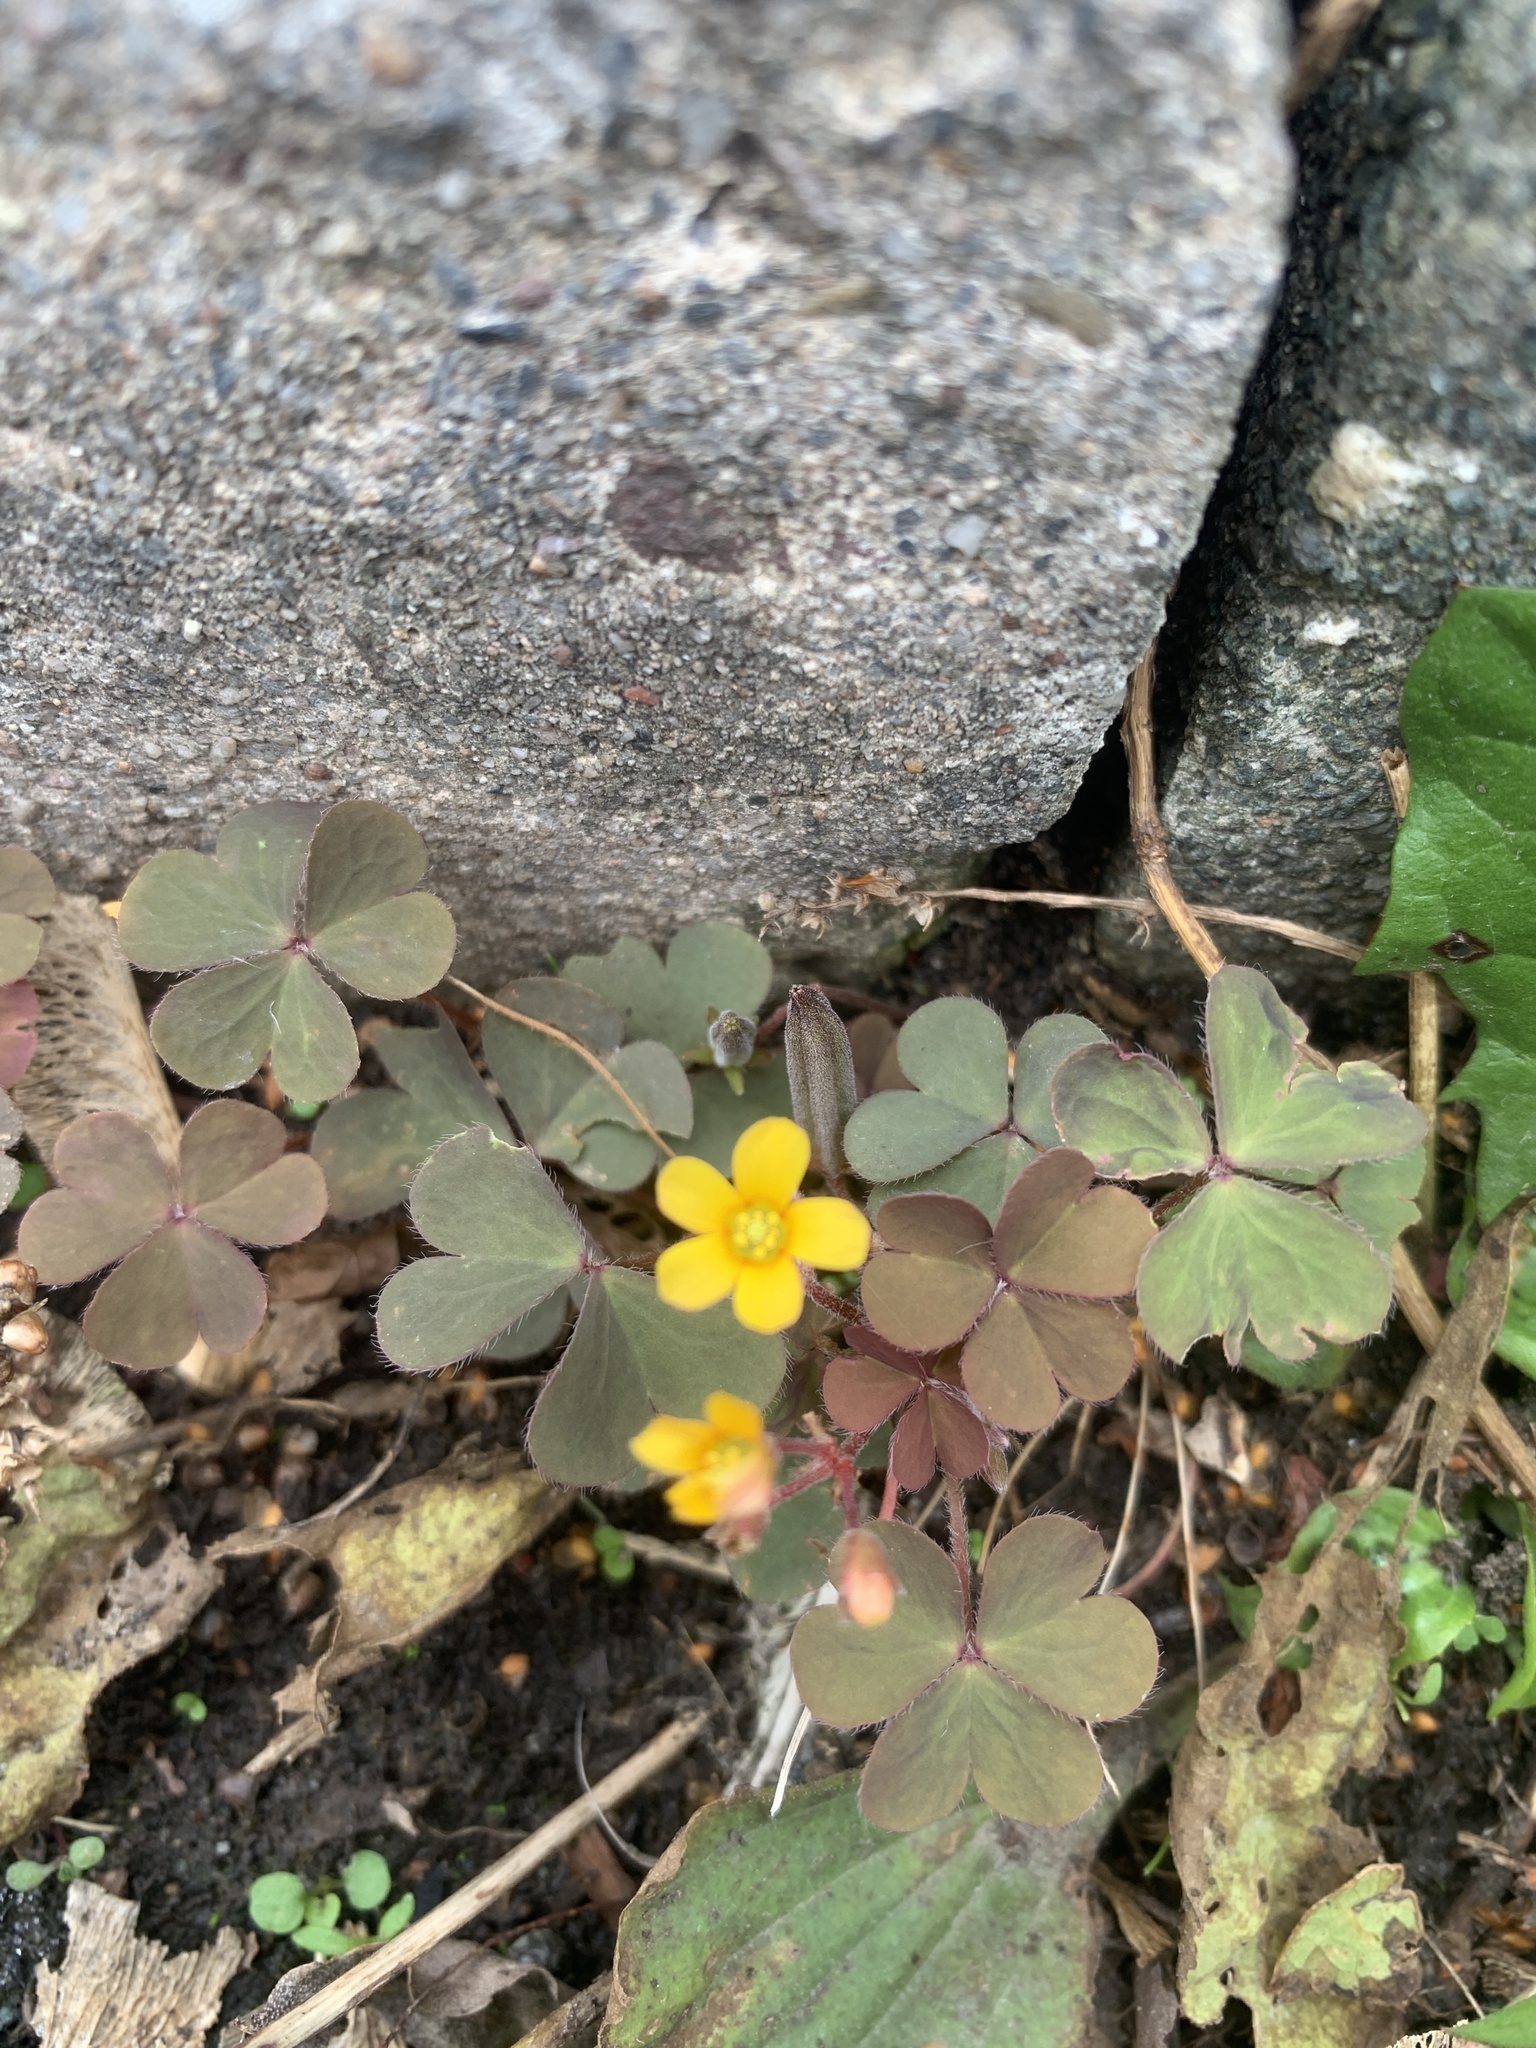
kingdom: Plantae
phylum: Tracheophyta
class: Magnoliopsida
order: Oxalidales
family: Oxalidaceae
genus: Oxalis
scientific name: Oxalis corniculata
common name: Procumbent yellow-sorrel
